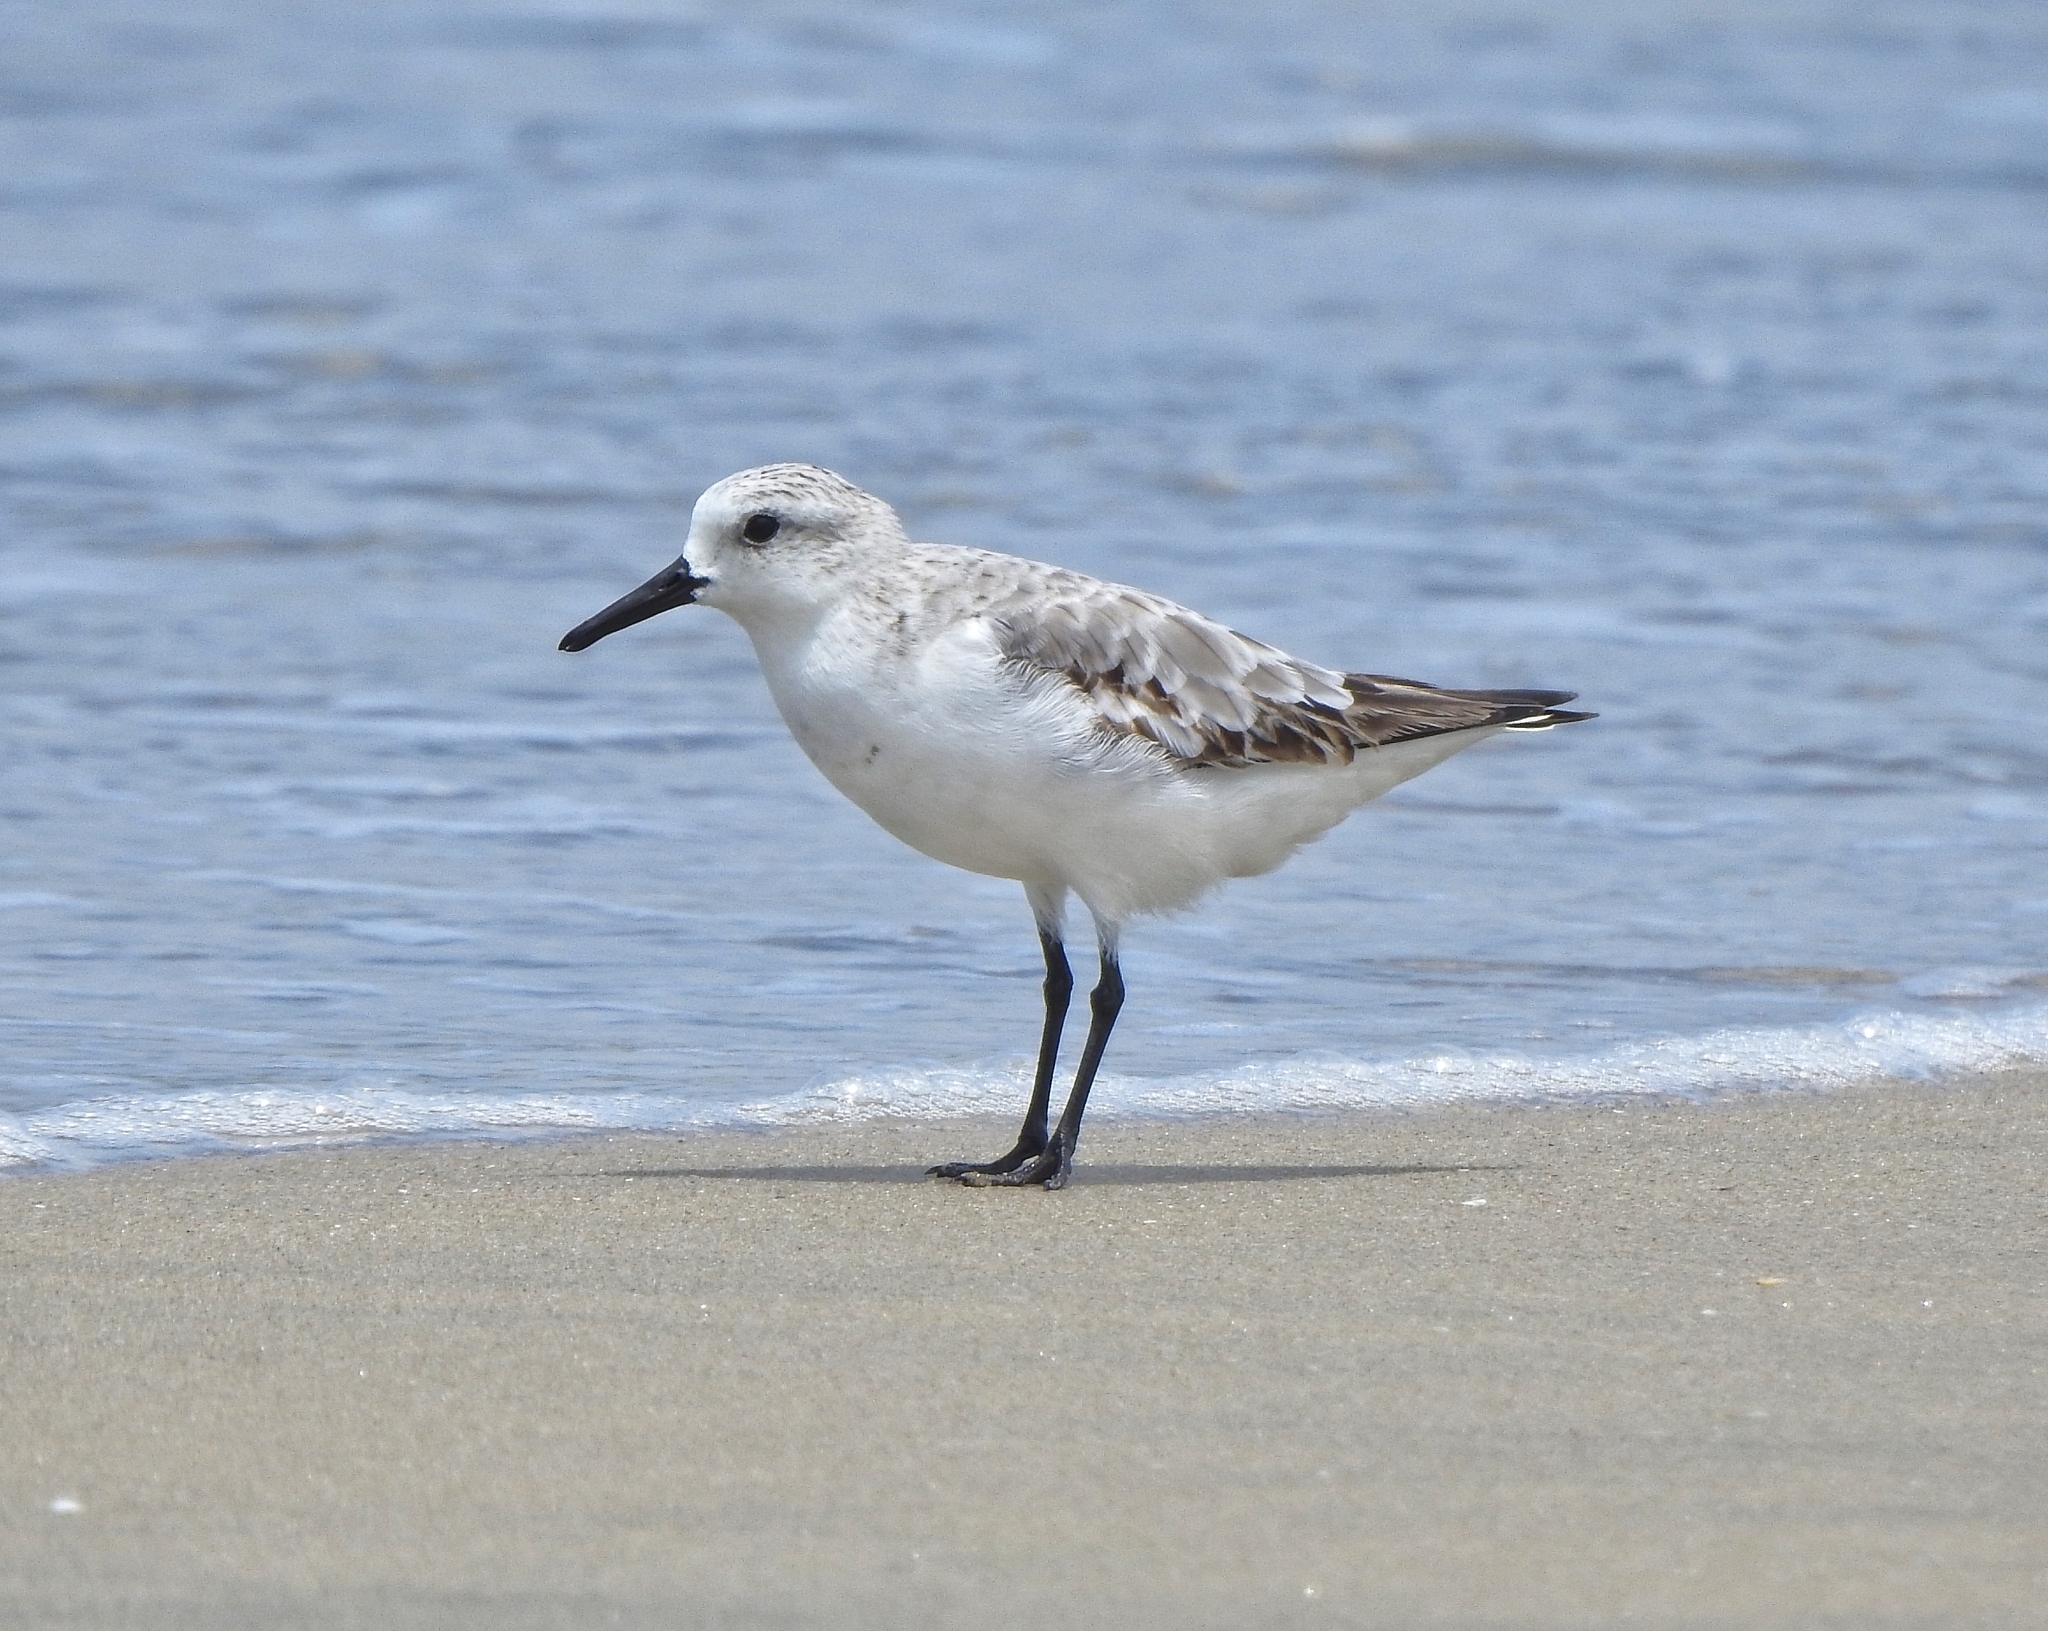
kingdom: Animalia
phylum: Chordata
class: Aves
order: Charadriiformes
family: Scolopacidae
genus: Calidris
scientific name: Calidris alba
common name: Sanderling
